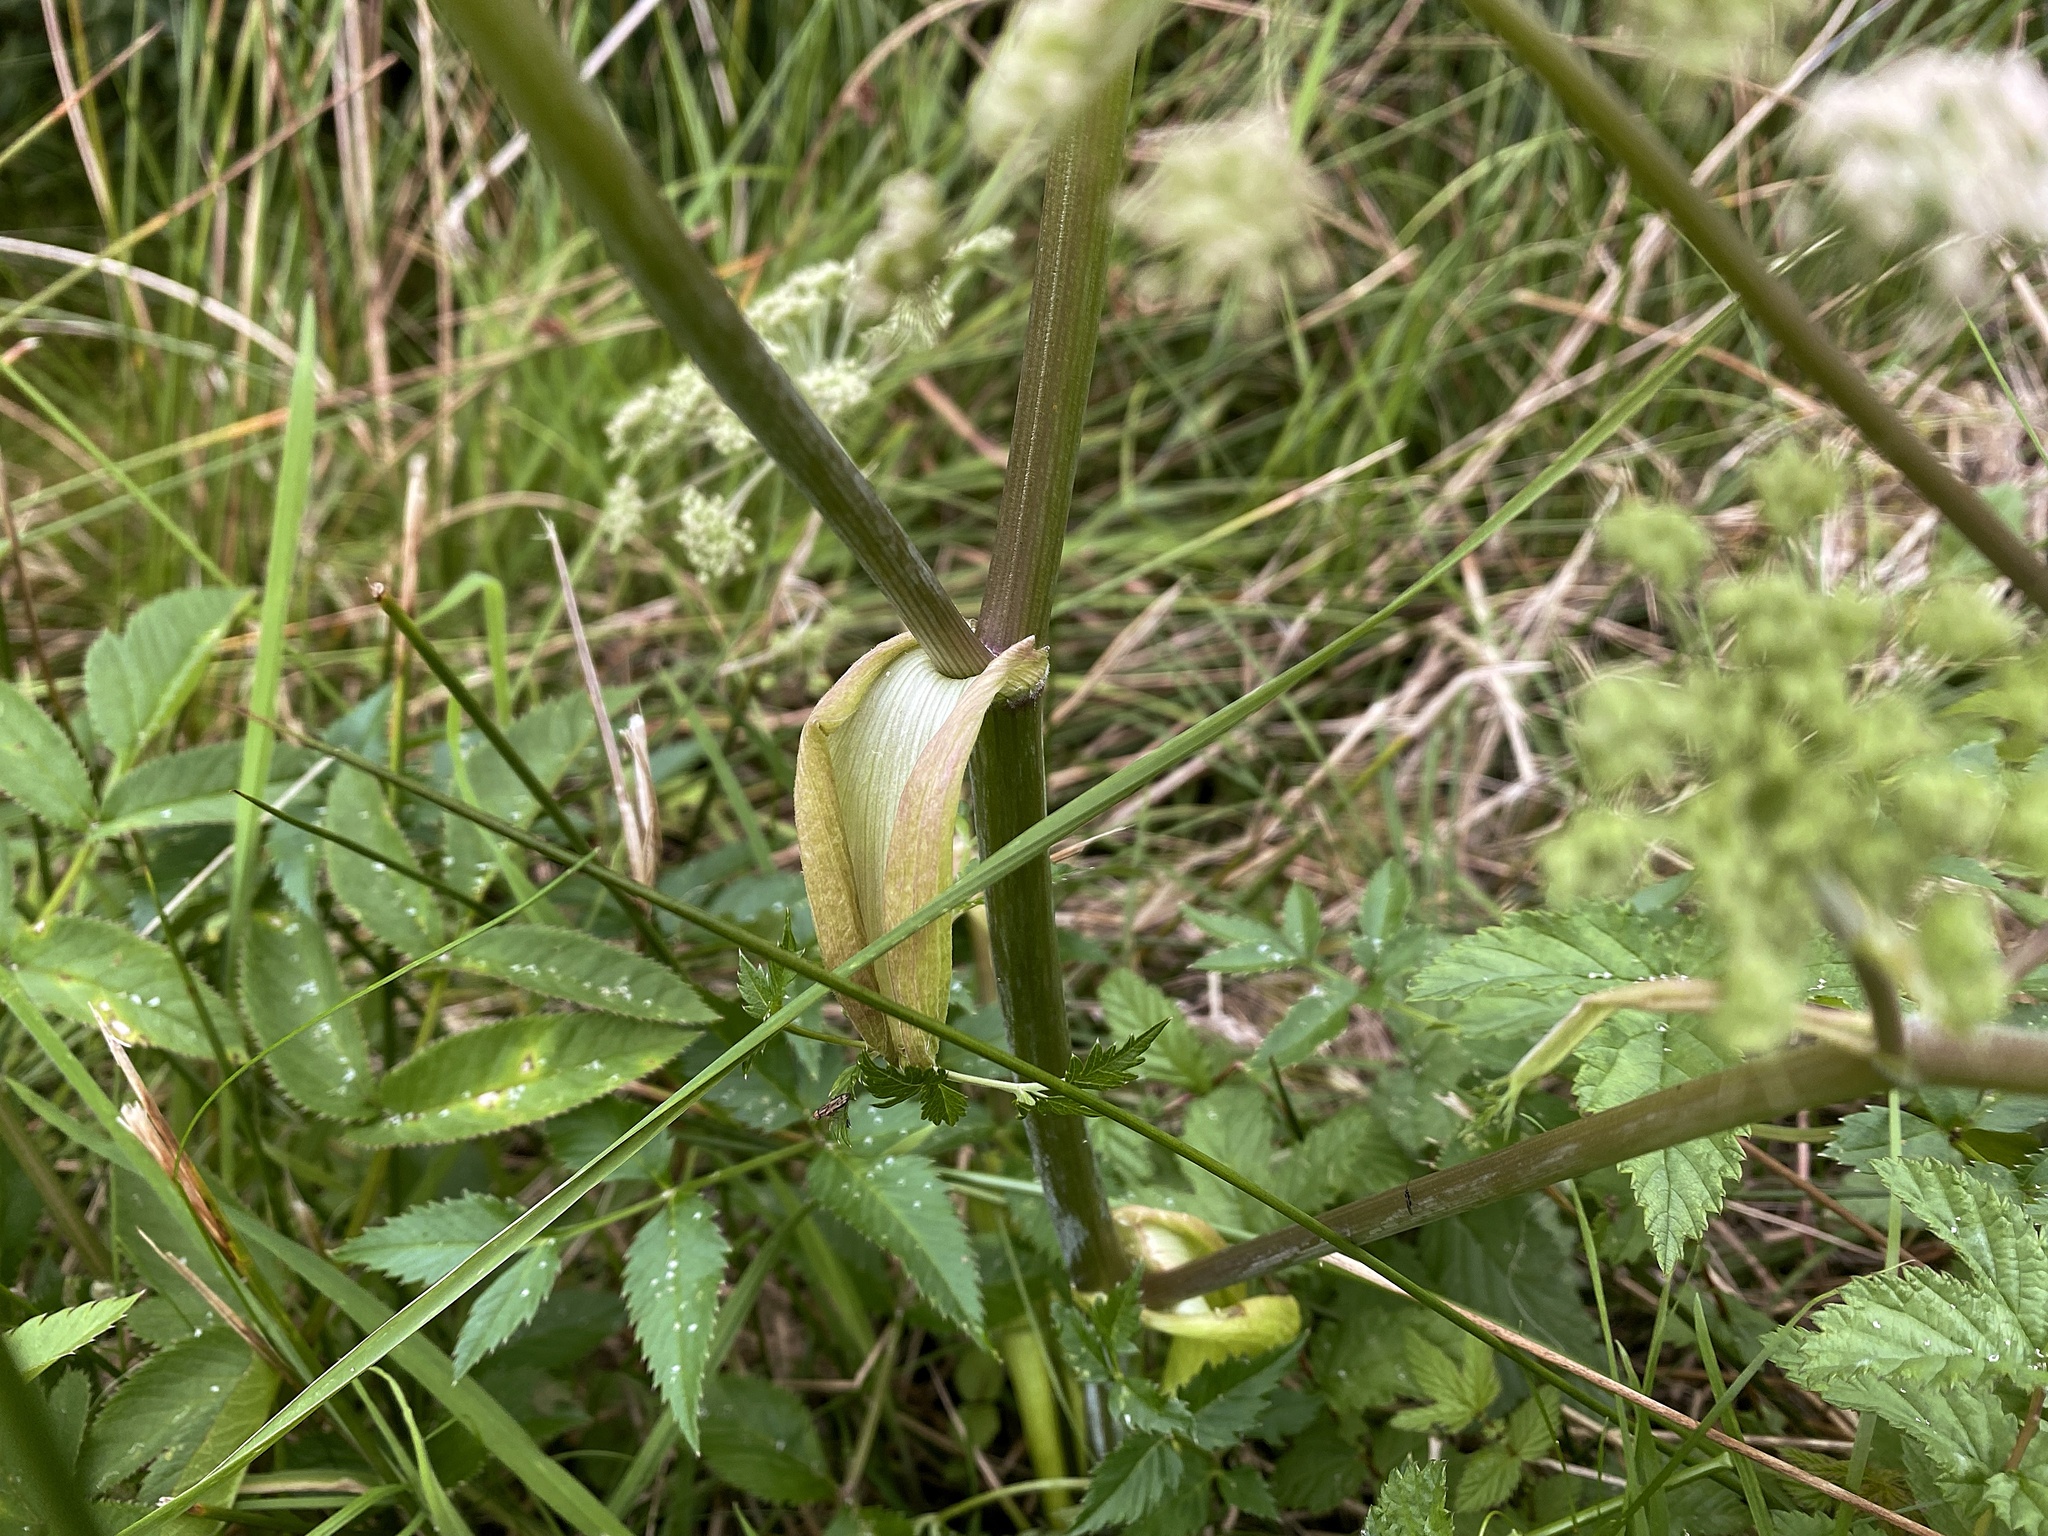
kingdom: Plantae
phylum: Tracheophyta
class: Magnoliopsida
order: Apiales
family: Apiaceae
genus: Angelica
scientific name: Angelica sylvestris
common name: Wild angelica
